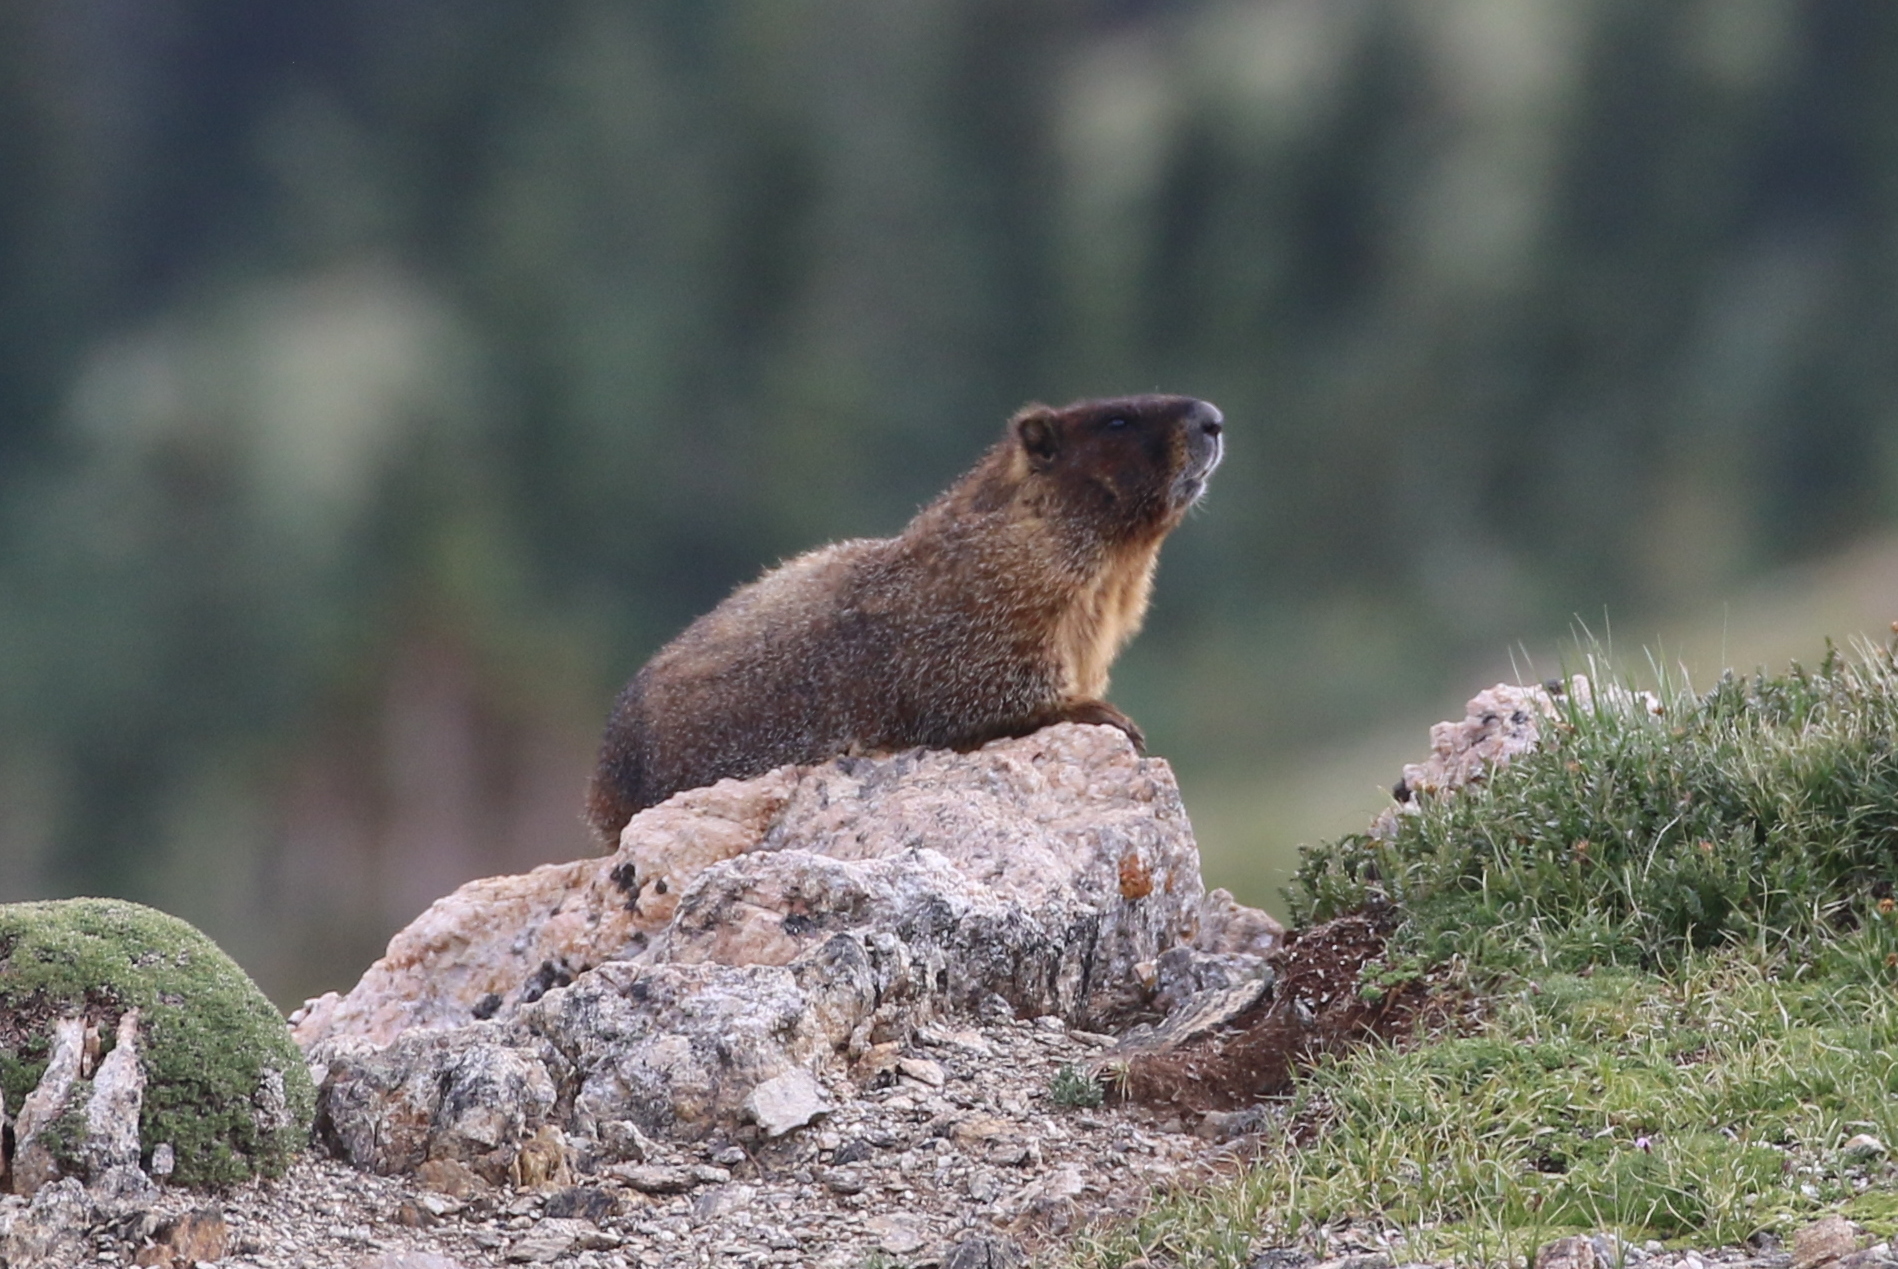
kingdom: Animalia
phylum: Chordata
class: Mammalia
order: Rodentia
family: Sciuridae
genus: Marmota
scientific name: Marmota flaviventris
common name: Yellow-bellied marmot
